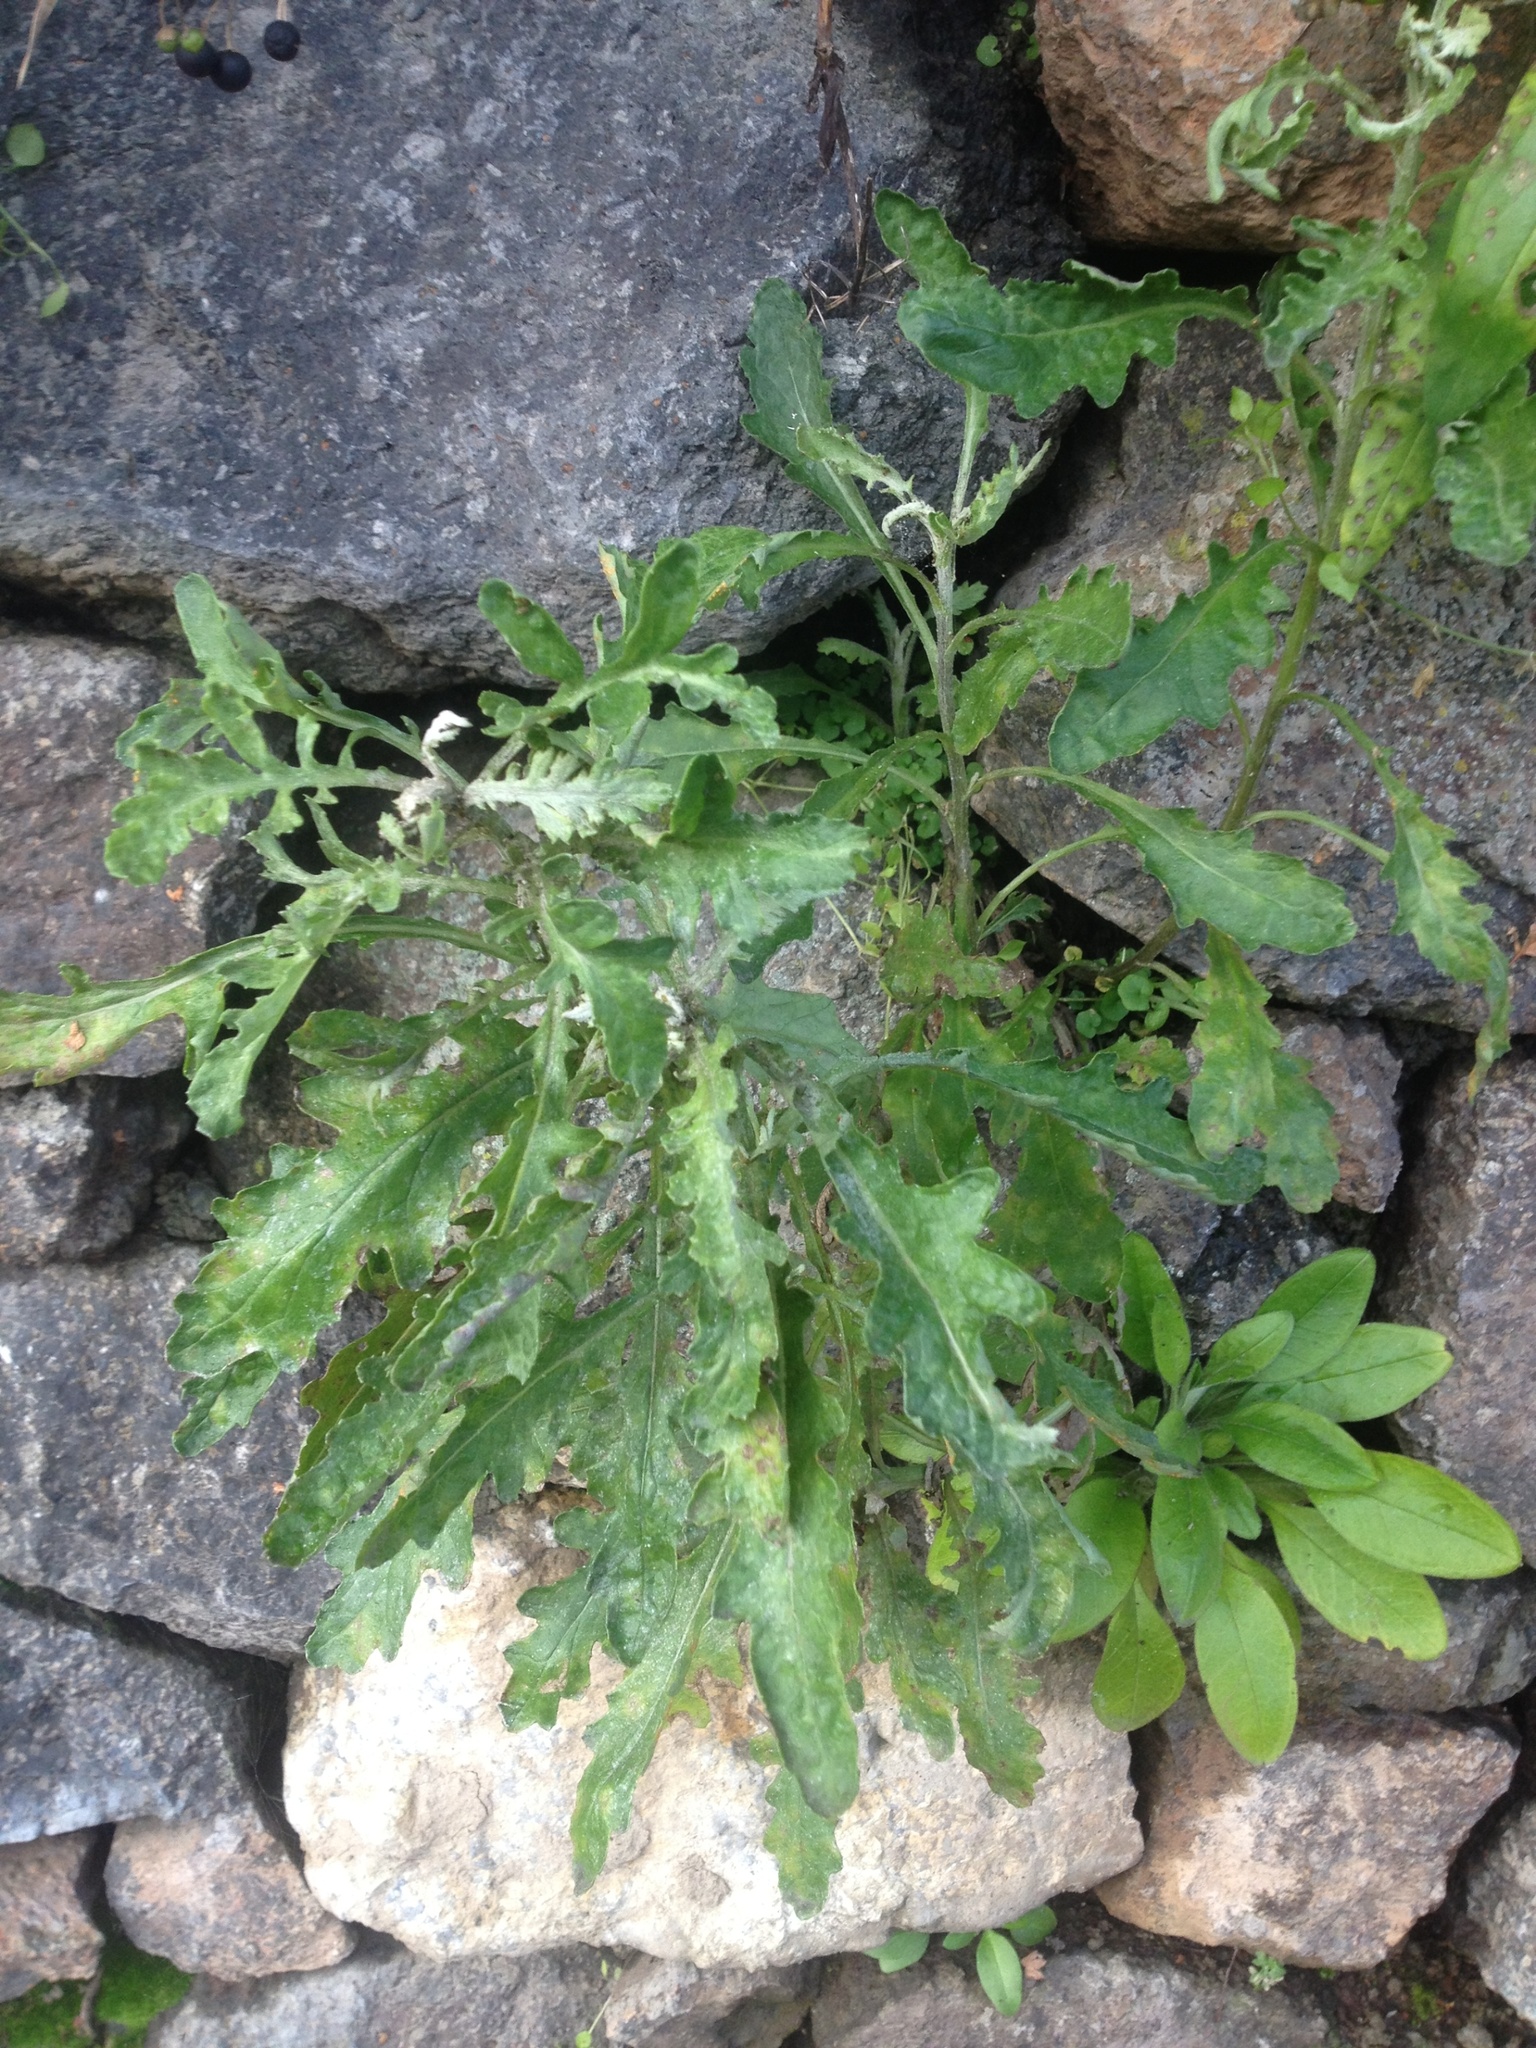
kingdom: Plantae
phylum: Tracheophyta
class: Magnoliopsida
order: Asterales
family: Asteraceae
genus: Senecio
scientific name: Senecio glomeratus
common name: Cutleaf burnweed
